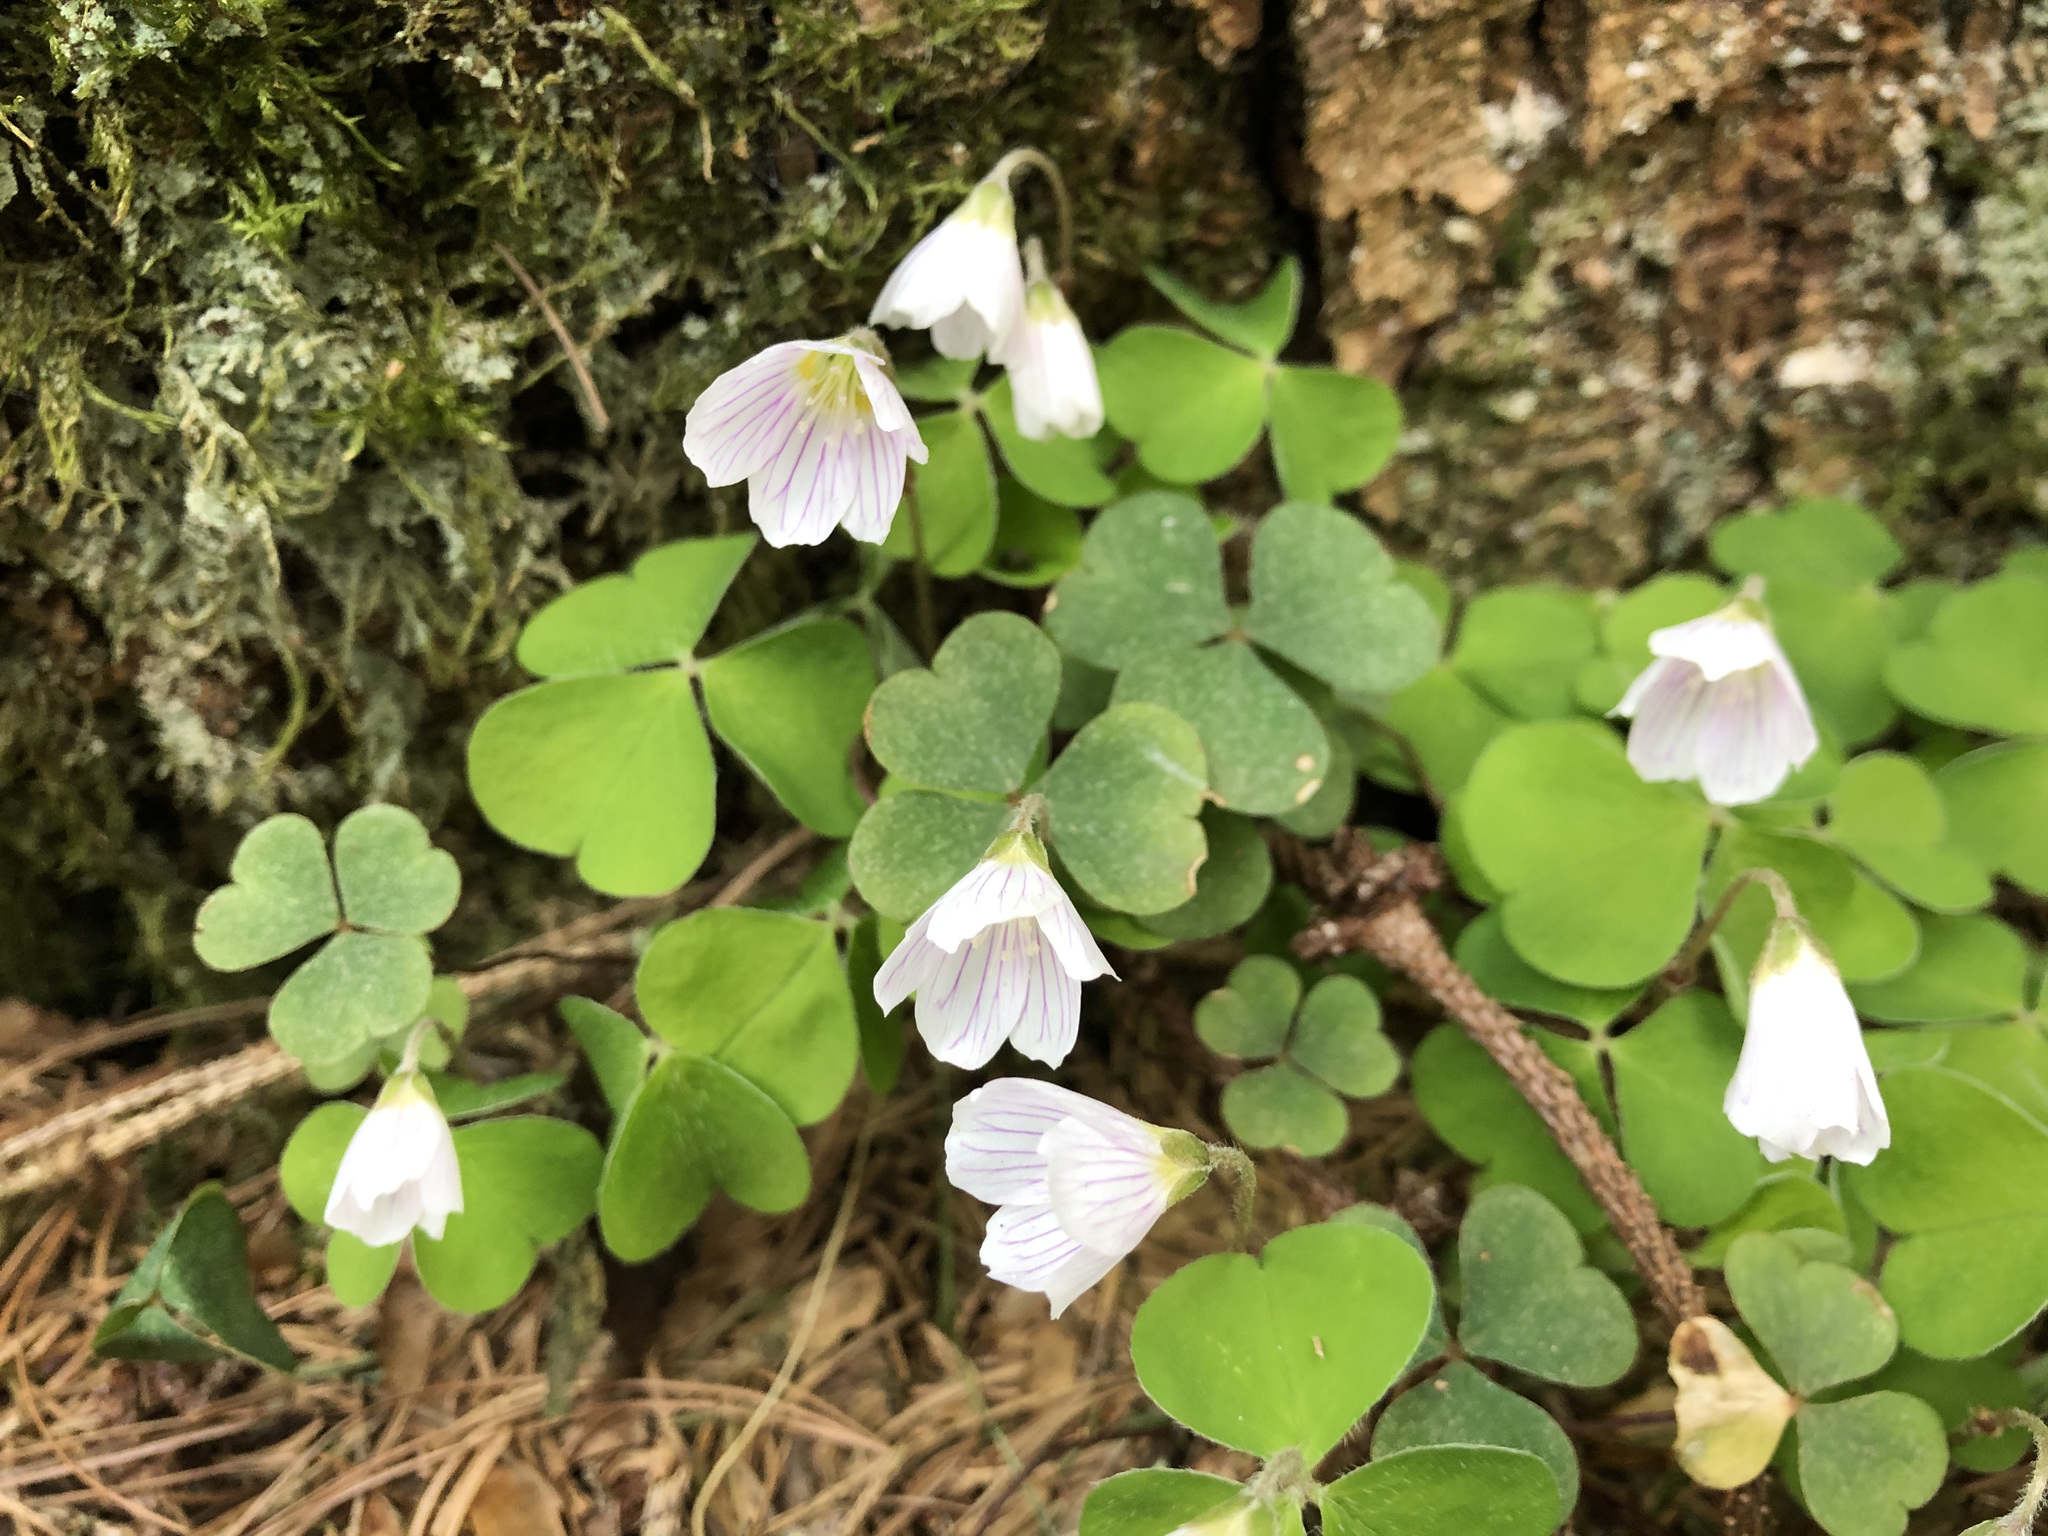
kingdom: Plantae
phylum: Tracheophyta
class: Magnoliopsida
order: Oxalidales
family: Oxalidaceae
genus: Oxalis
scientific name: Oxalis acetosella
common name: Wood-sorrel
